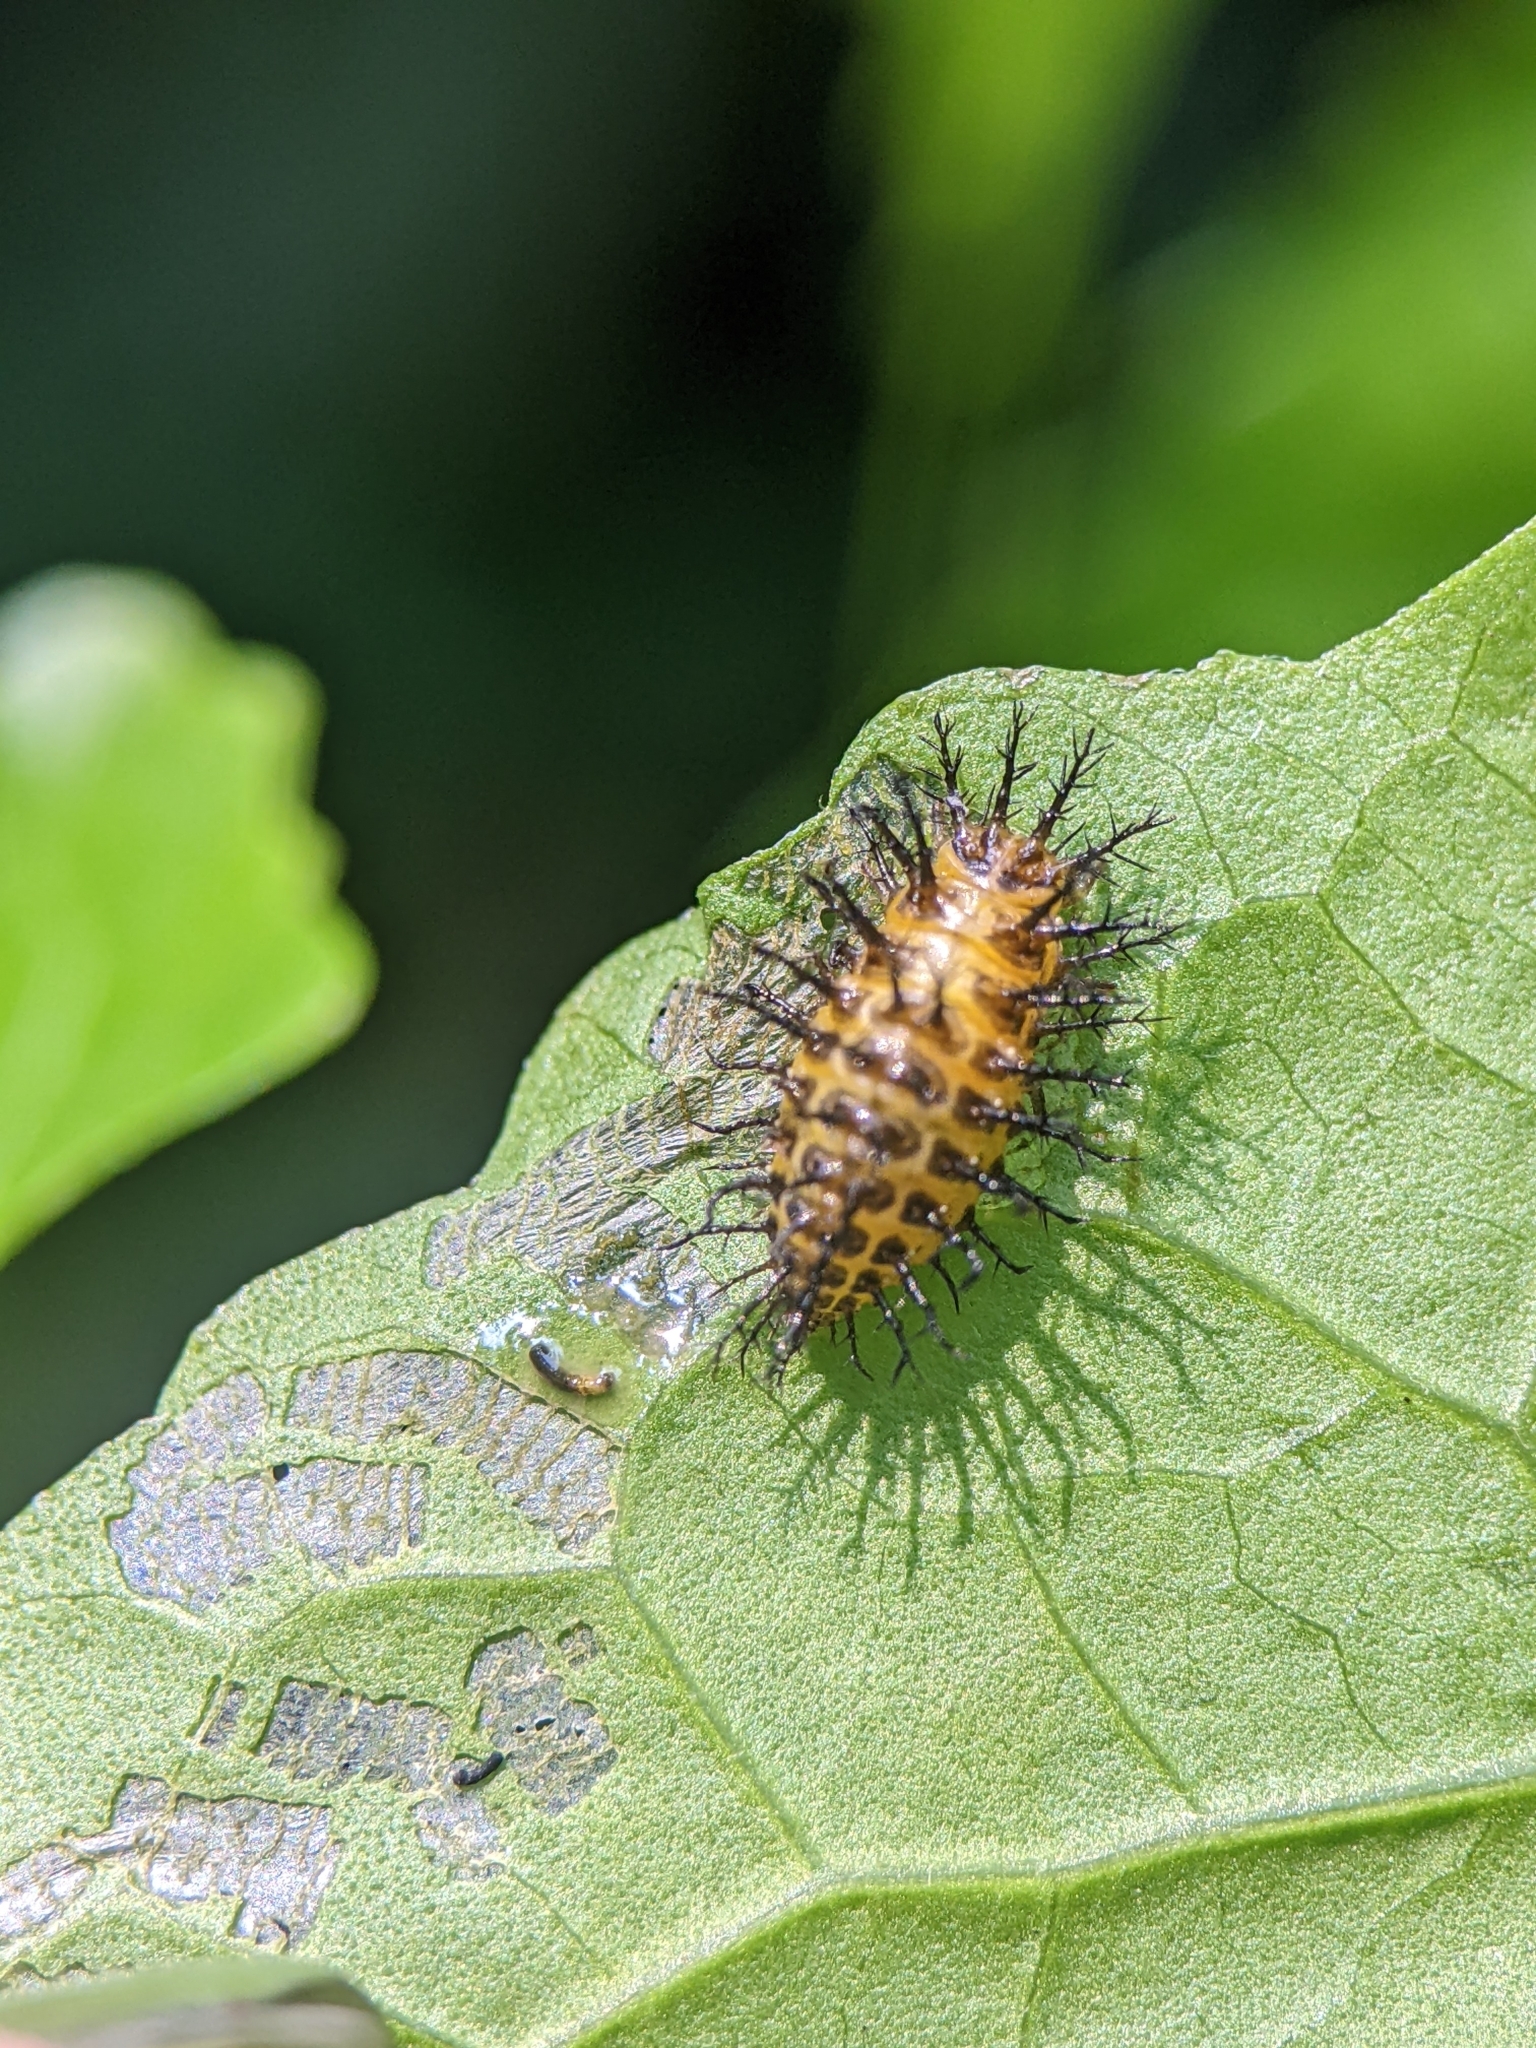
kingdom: Animalia
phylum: Arthropoda
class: Insecta
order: Coleoptera
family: Coccinellidae
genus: Henosepilachna
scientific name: Henosepilachna
